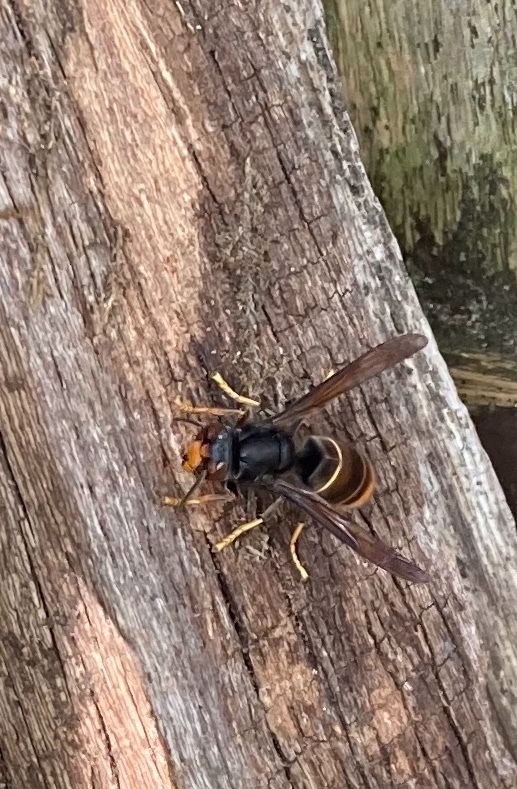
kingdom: Animalia
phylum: Arthropoda
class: Insecta
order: Hymenoptera
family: Vespidae
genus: Vespa
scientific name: Vespa velutina
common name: Asian hornet
